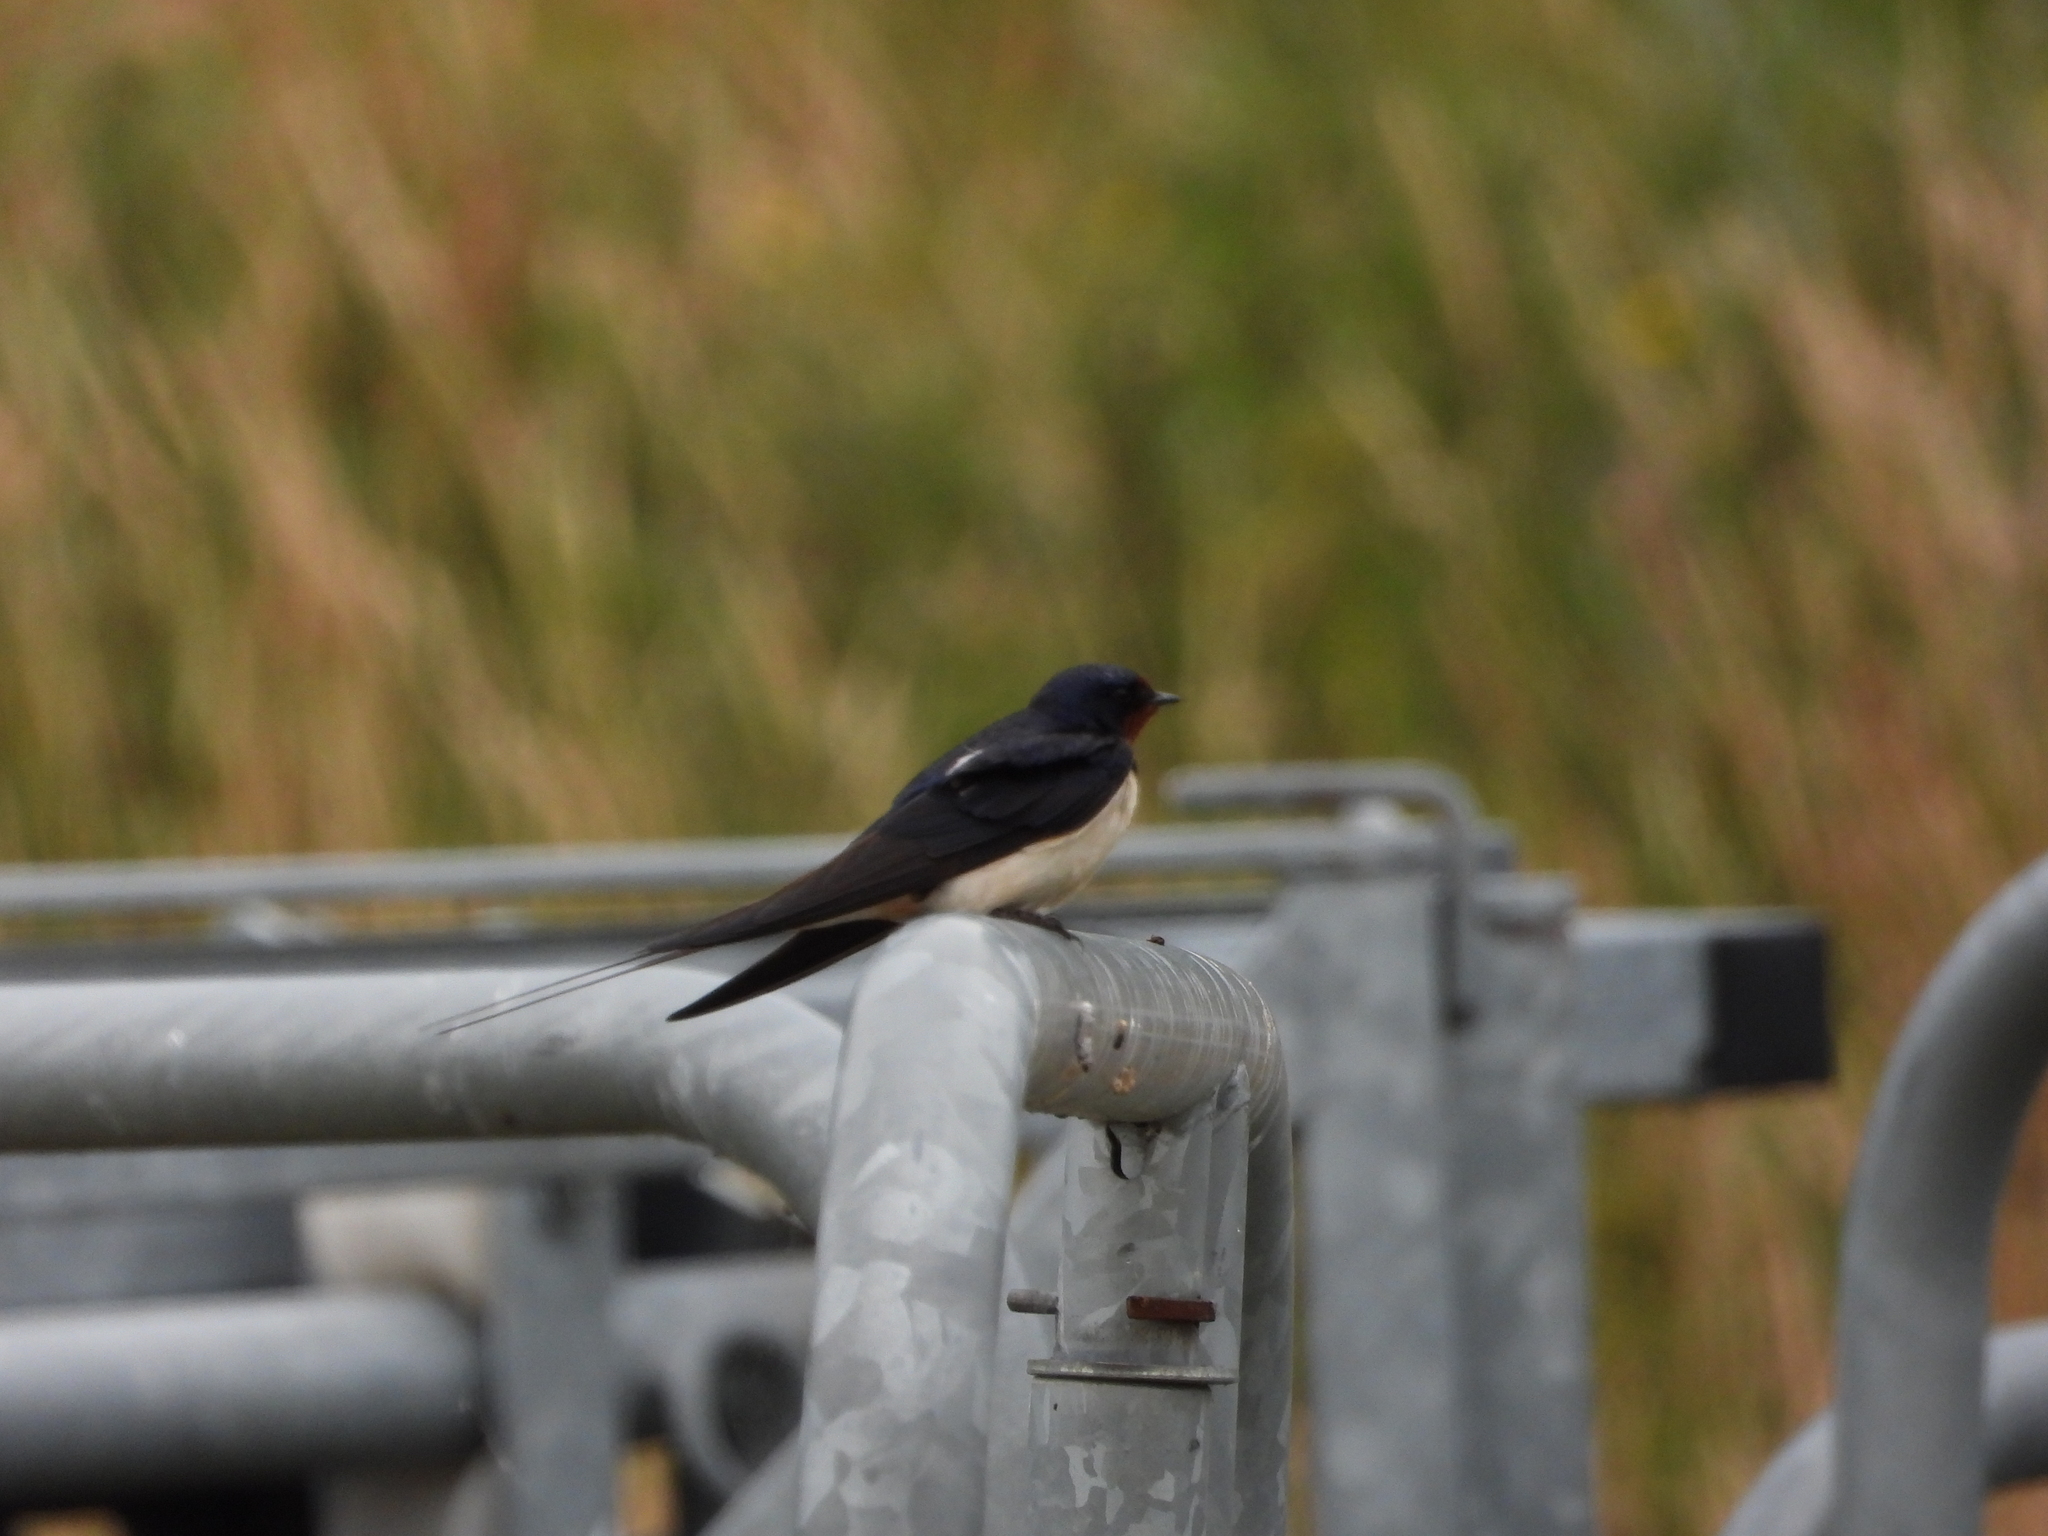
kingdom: Animalia
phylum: Chordata
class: Aves
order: Passeriformes
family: Hirundinidae
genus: Hirundo
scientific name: Hirundo rustica
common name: Barn swallow
